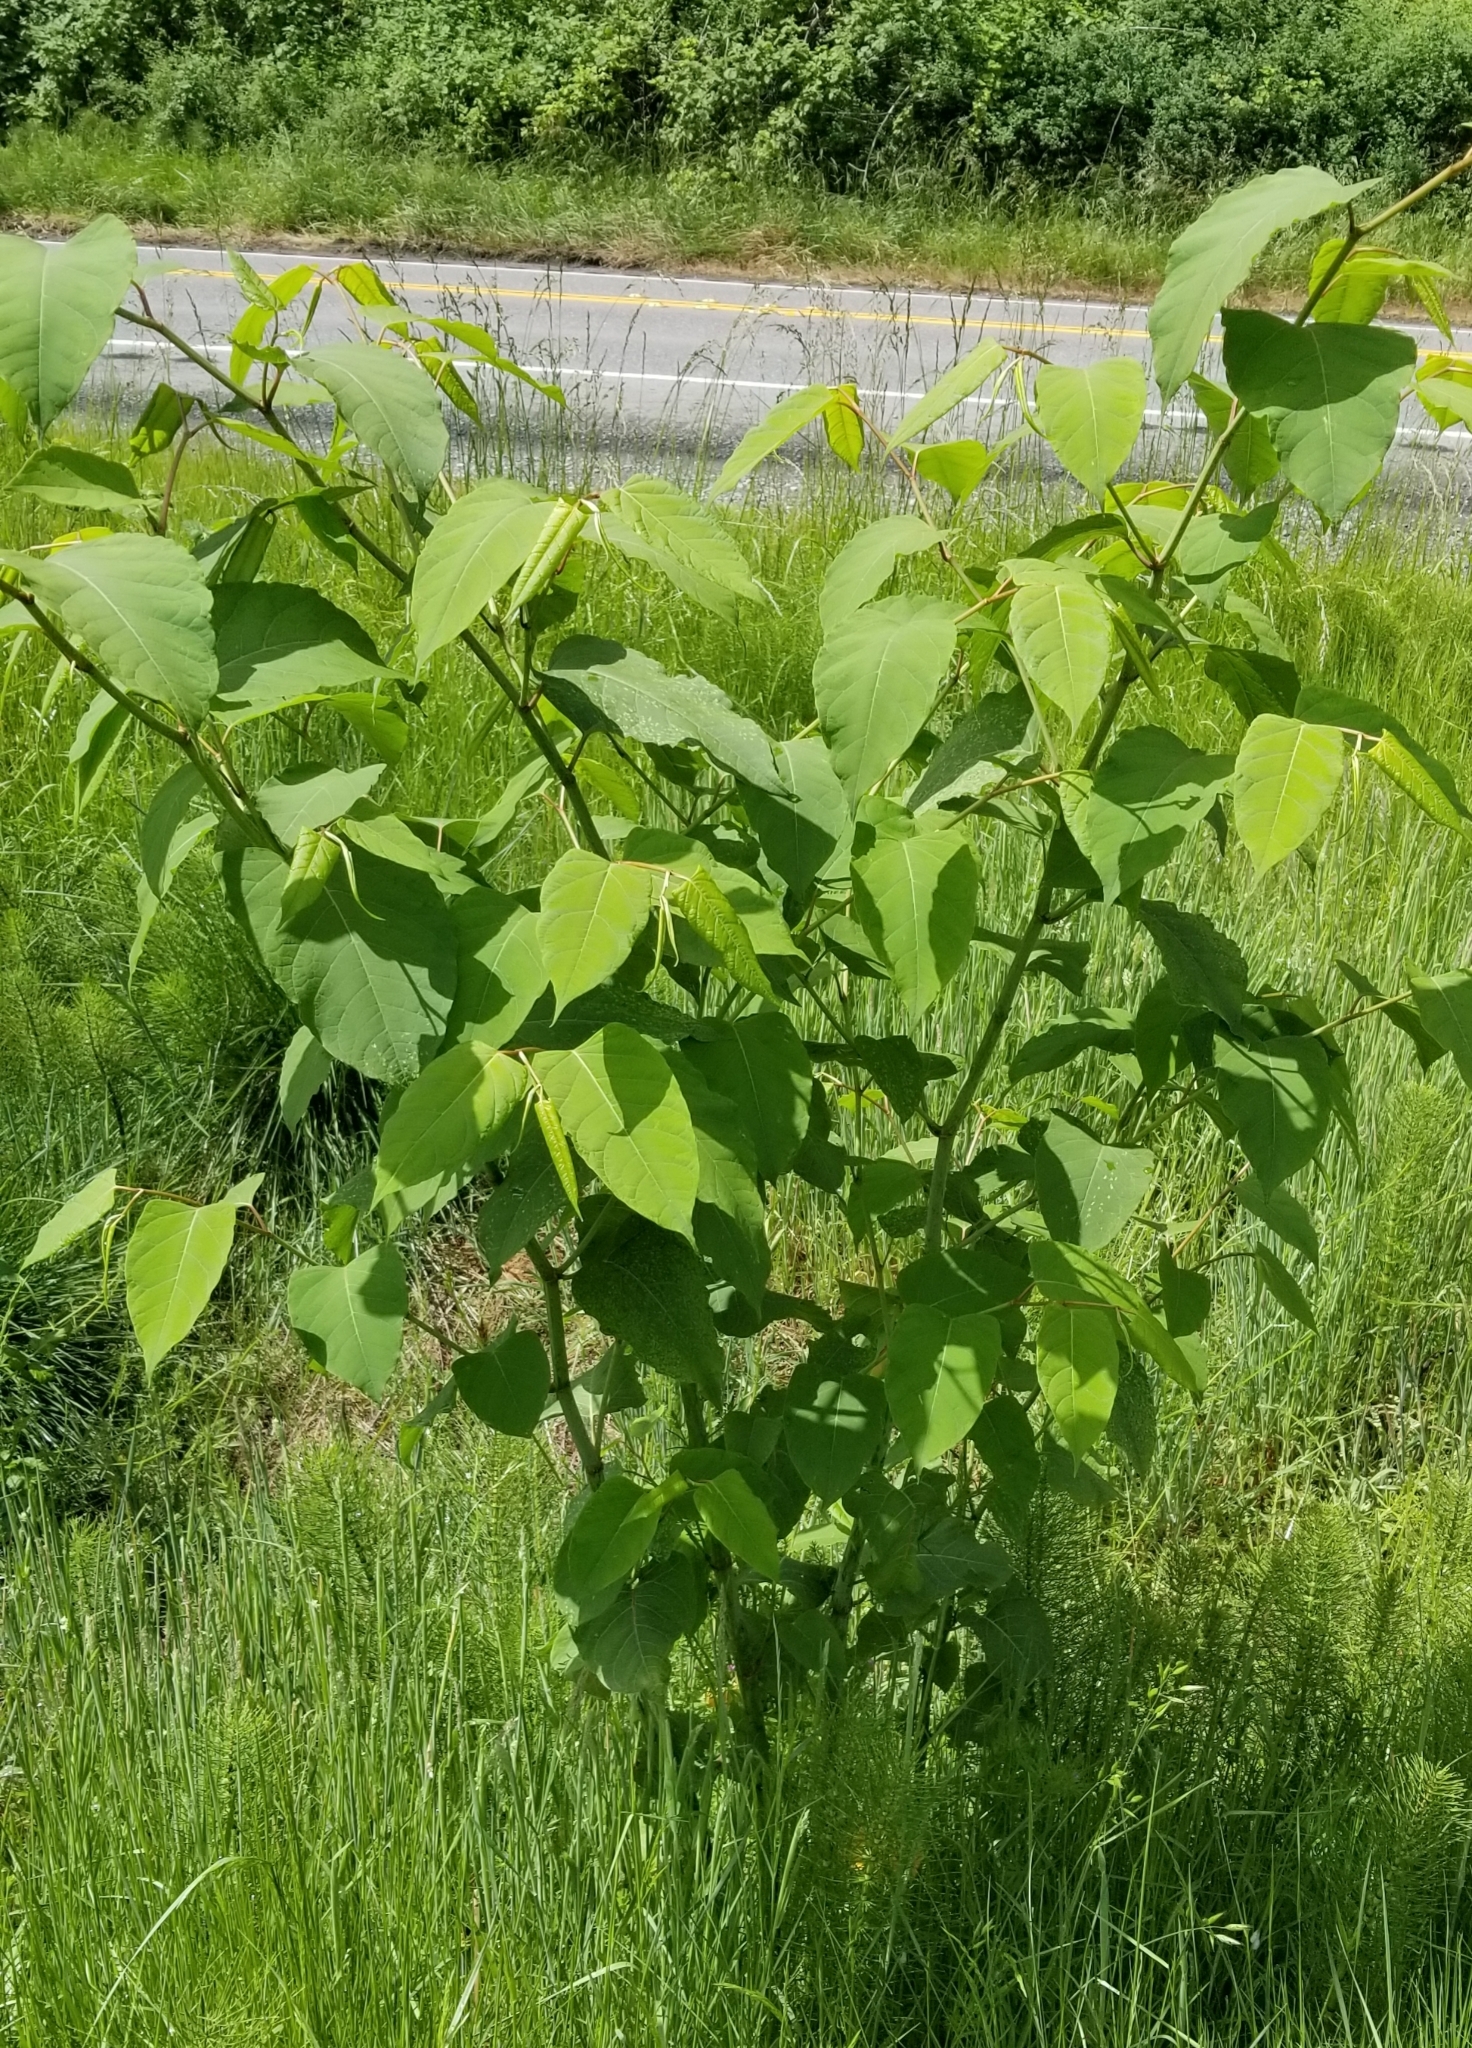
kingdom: Plantae
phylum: Tracheophyta
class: Magnoliopsida
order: Caryophyllales
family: Polygonaceae
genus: Reynoutria
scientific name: Reynoutria bohemica
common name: Bohemian knotweed
